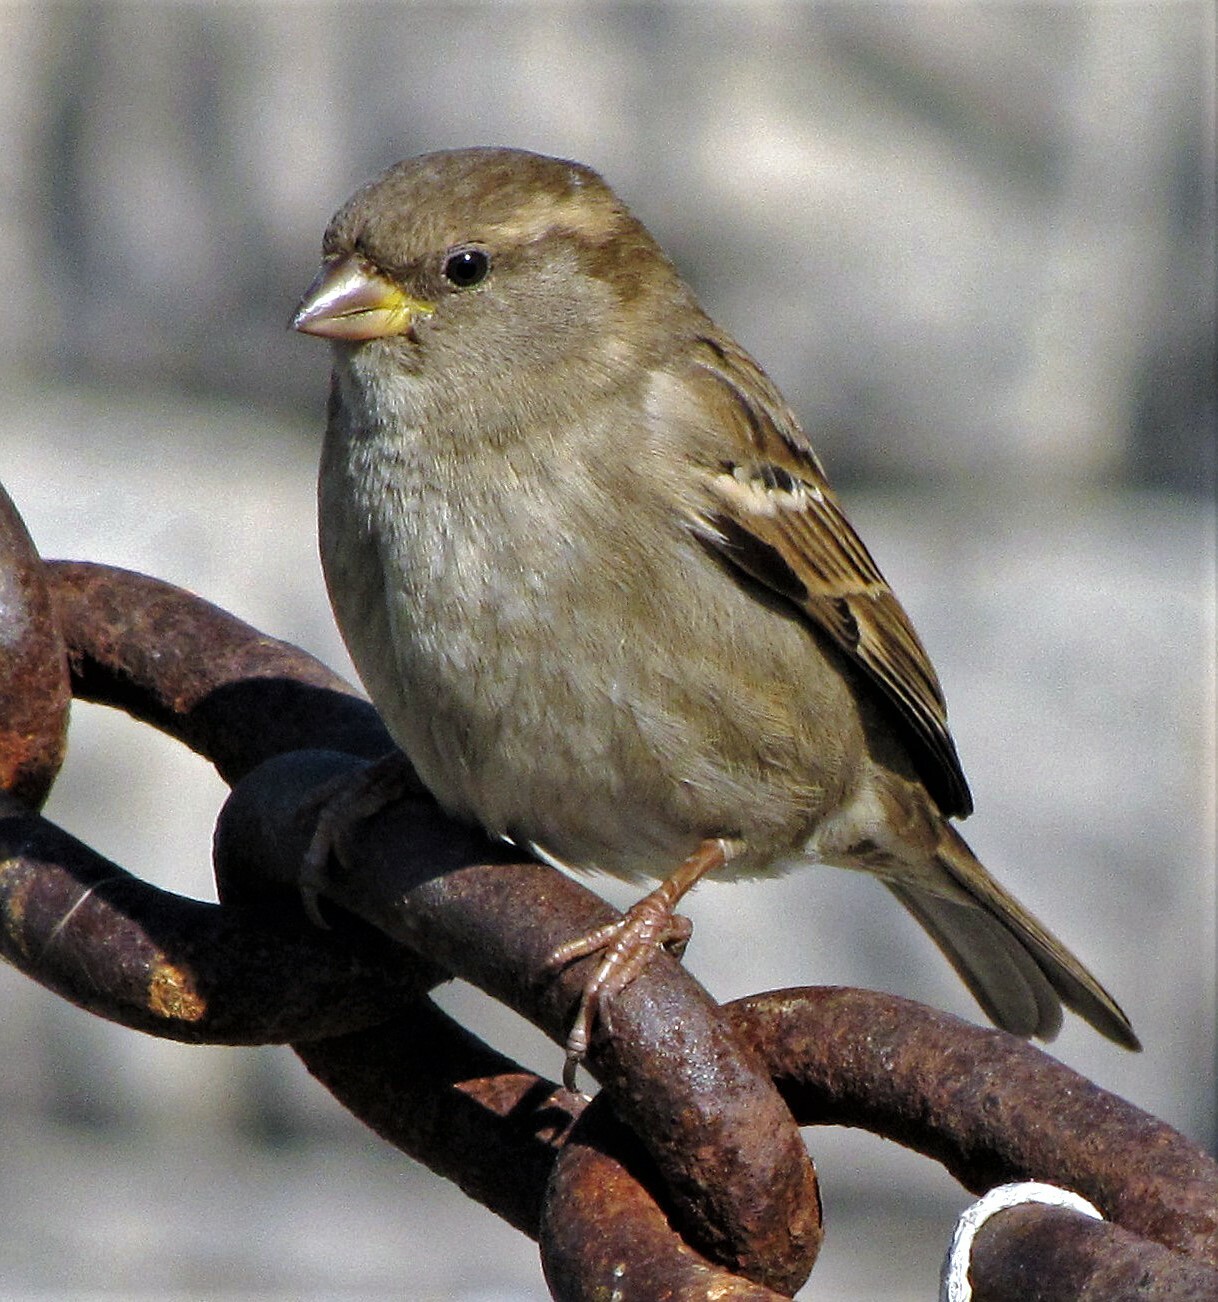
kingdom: Animalia
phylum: Chordata
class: Aves
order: Passeriformes
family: Passeridae
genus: Passer
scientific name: Passer domesticus
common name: House sparrow
